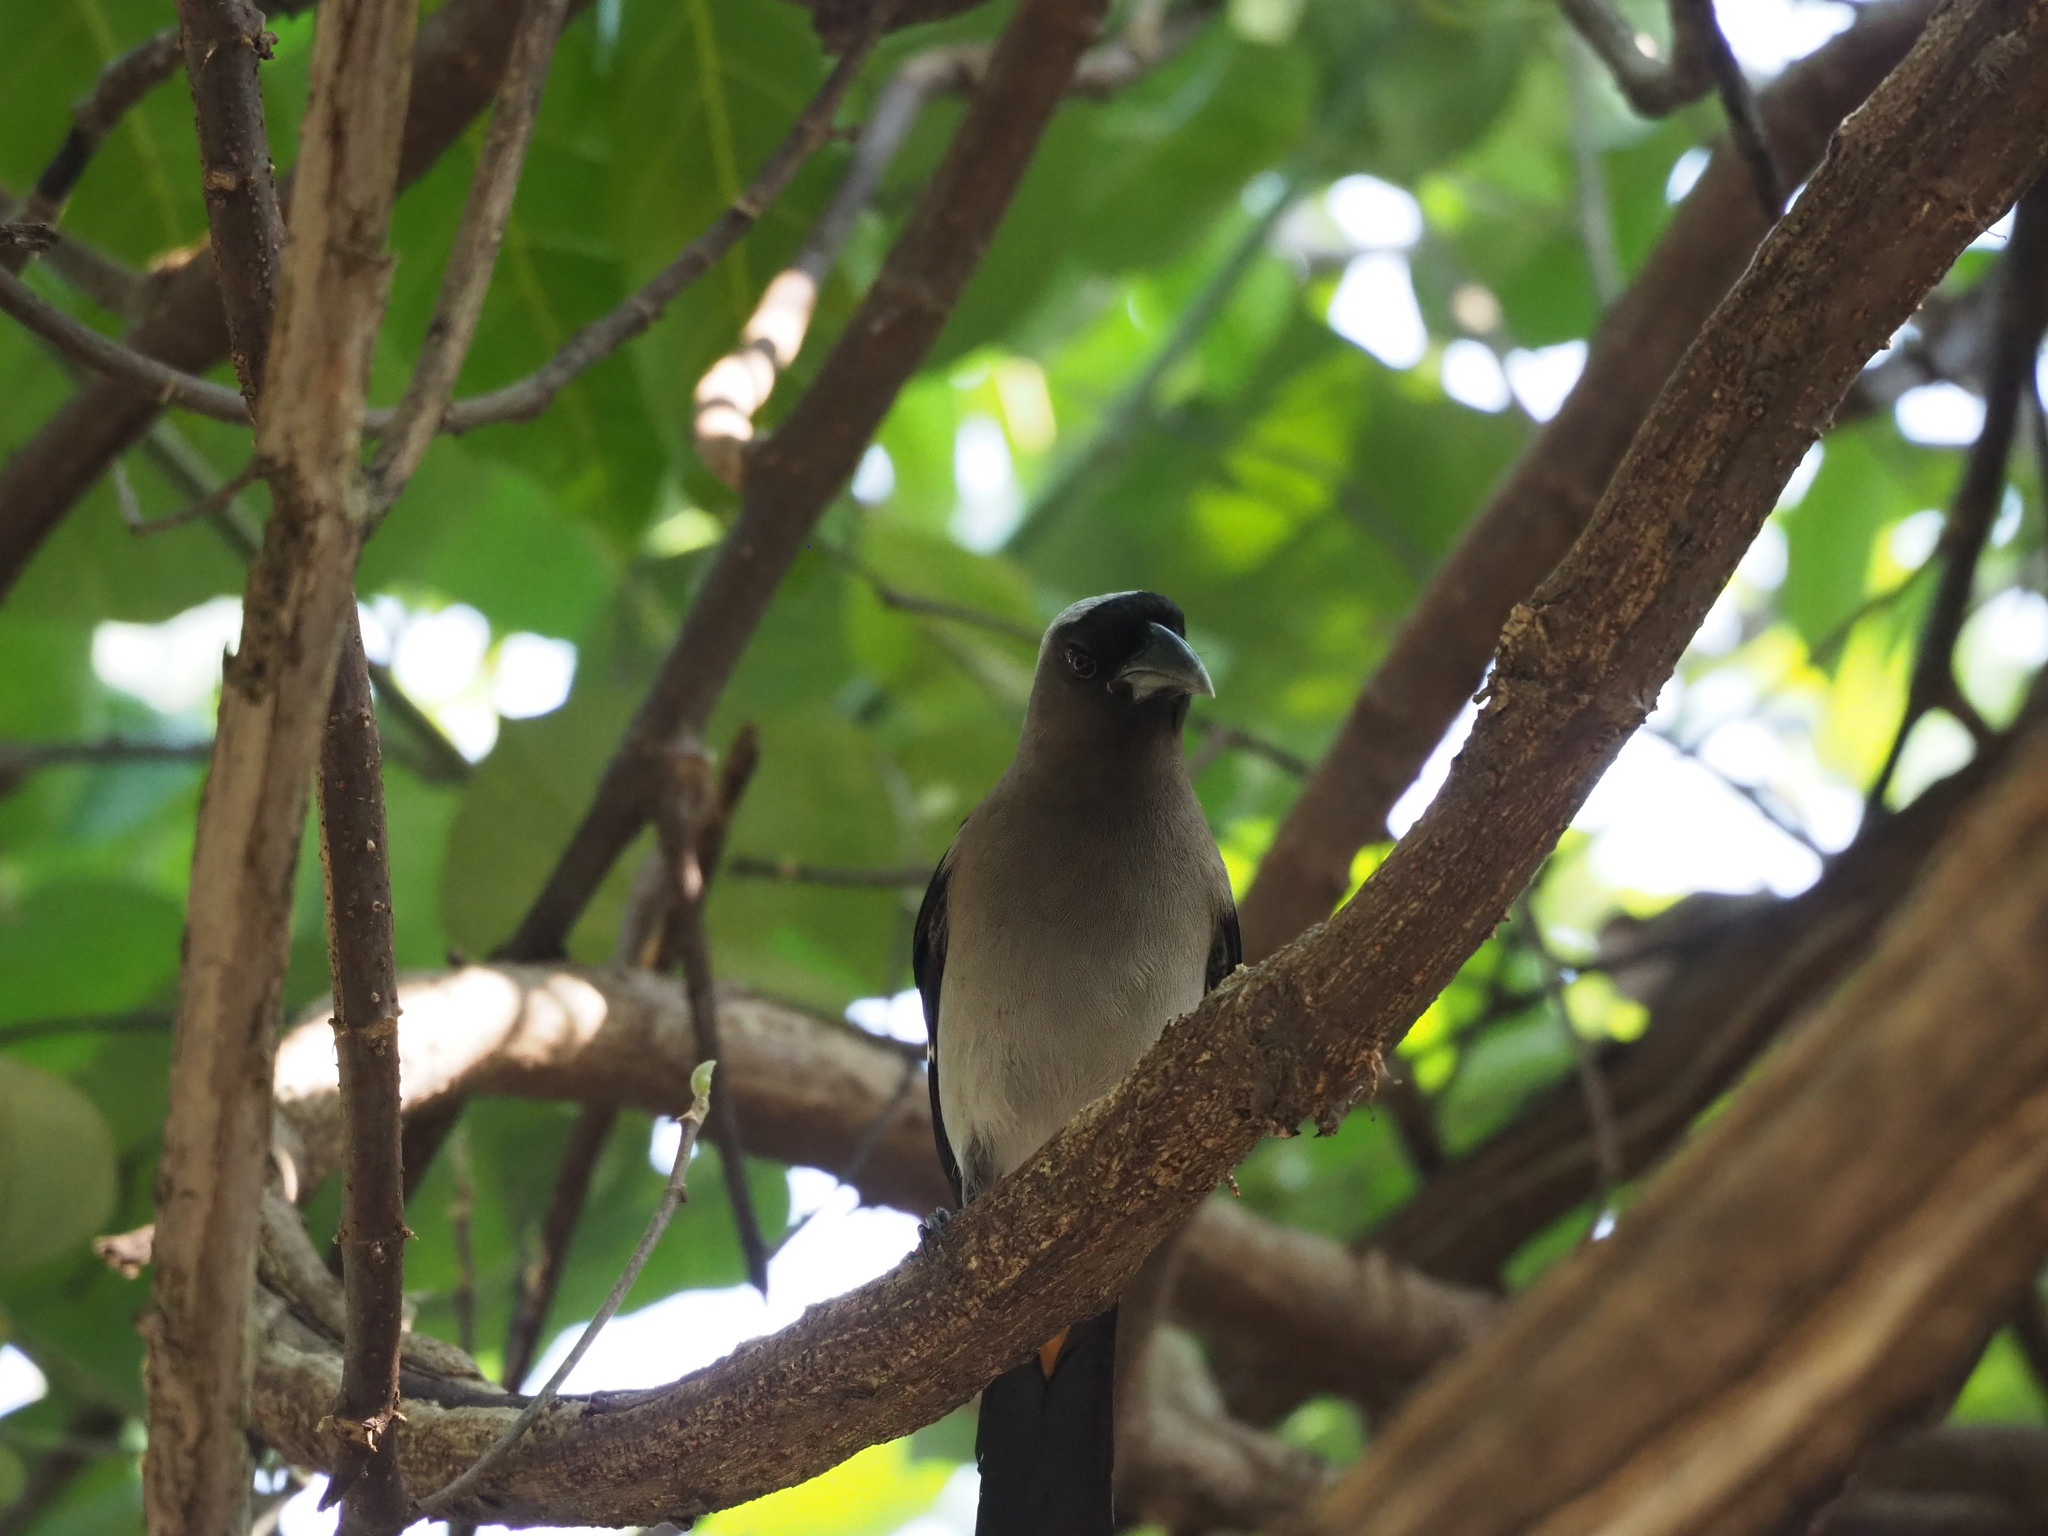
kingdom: Animalia
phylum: Chordata
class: Aves
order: Passeriformes
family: Corvidae
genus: Dendrocitta
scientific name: Dendrocitta formosae
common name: Grey treepie
